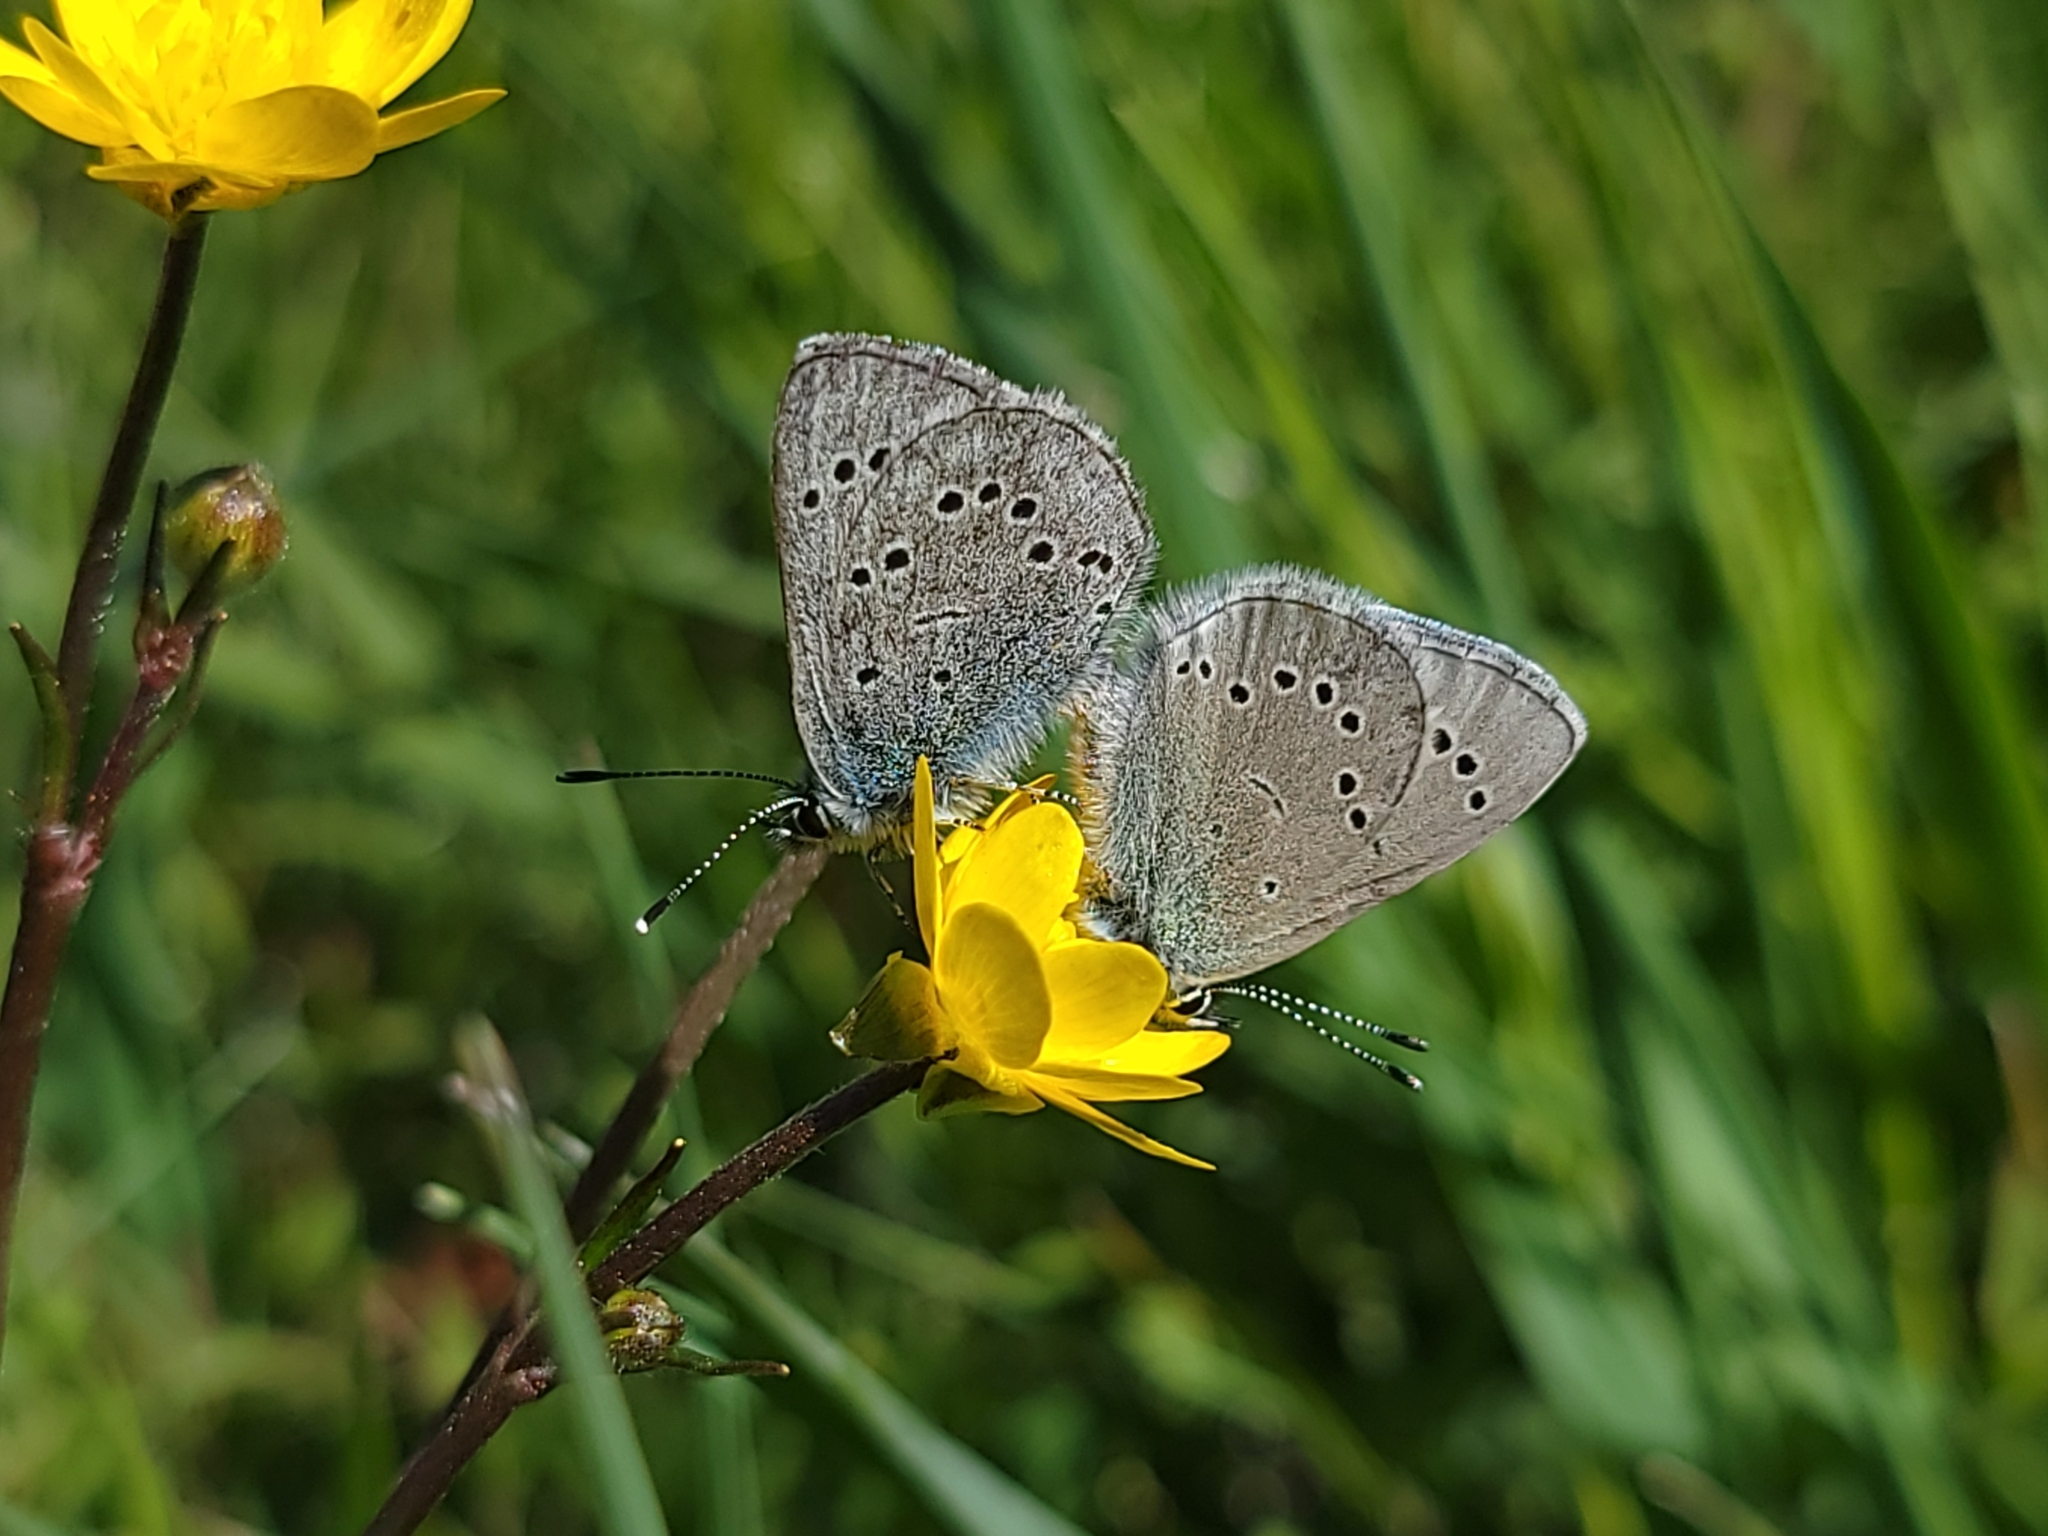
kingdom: Animalia
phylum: Arthropoda
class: Insecta
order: Lepidoptera
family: Lycaenidae
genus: Glaucopsyche
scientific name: Glaucopsyche lygdamus
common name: Silvery blue
